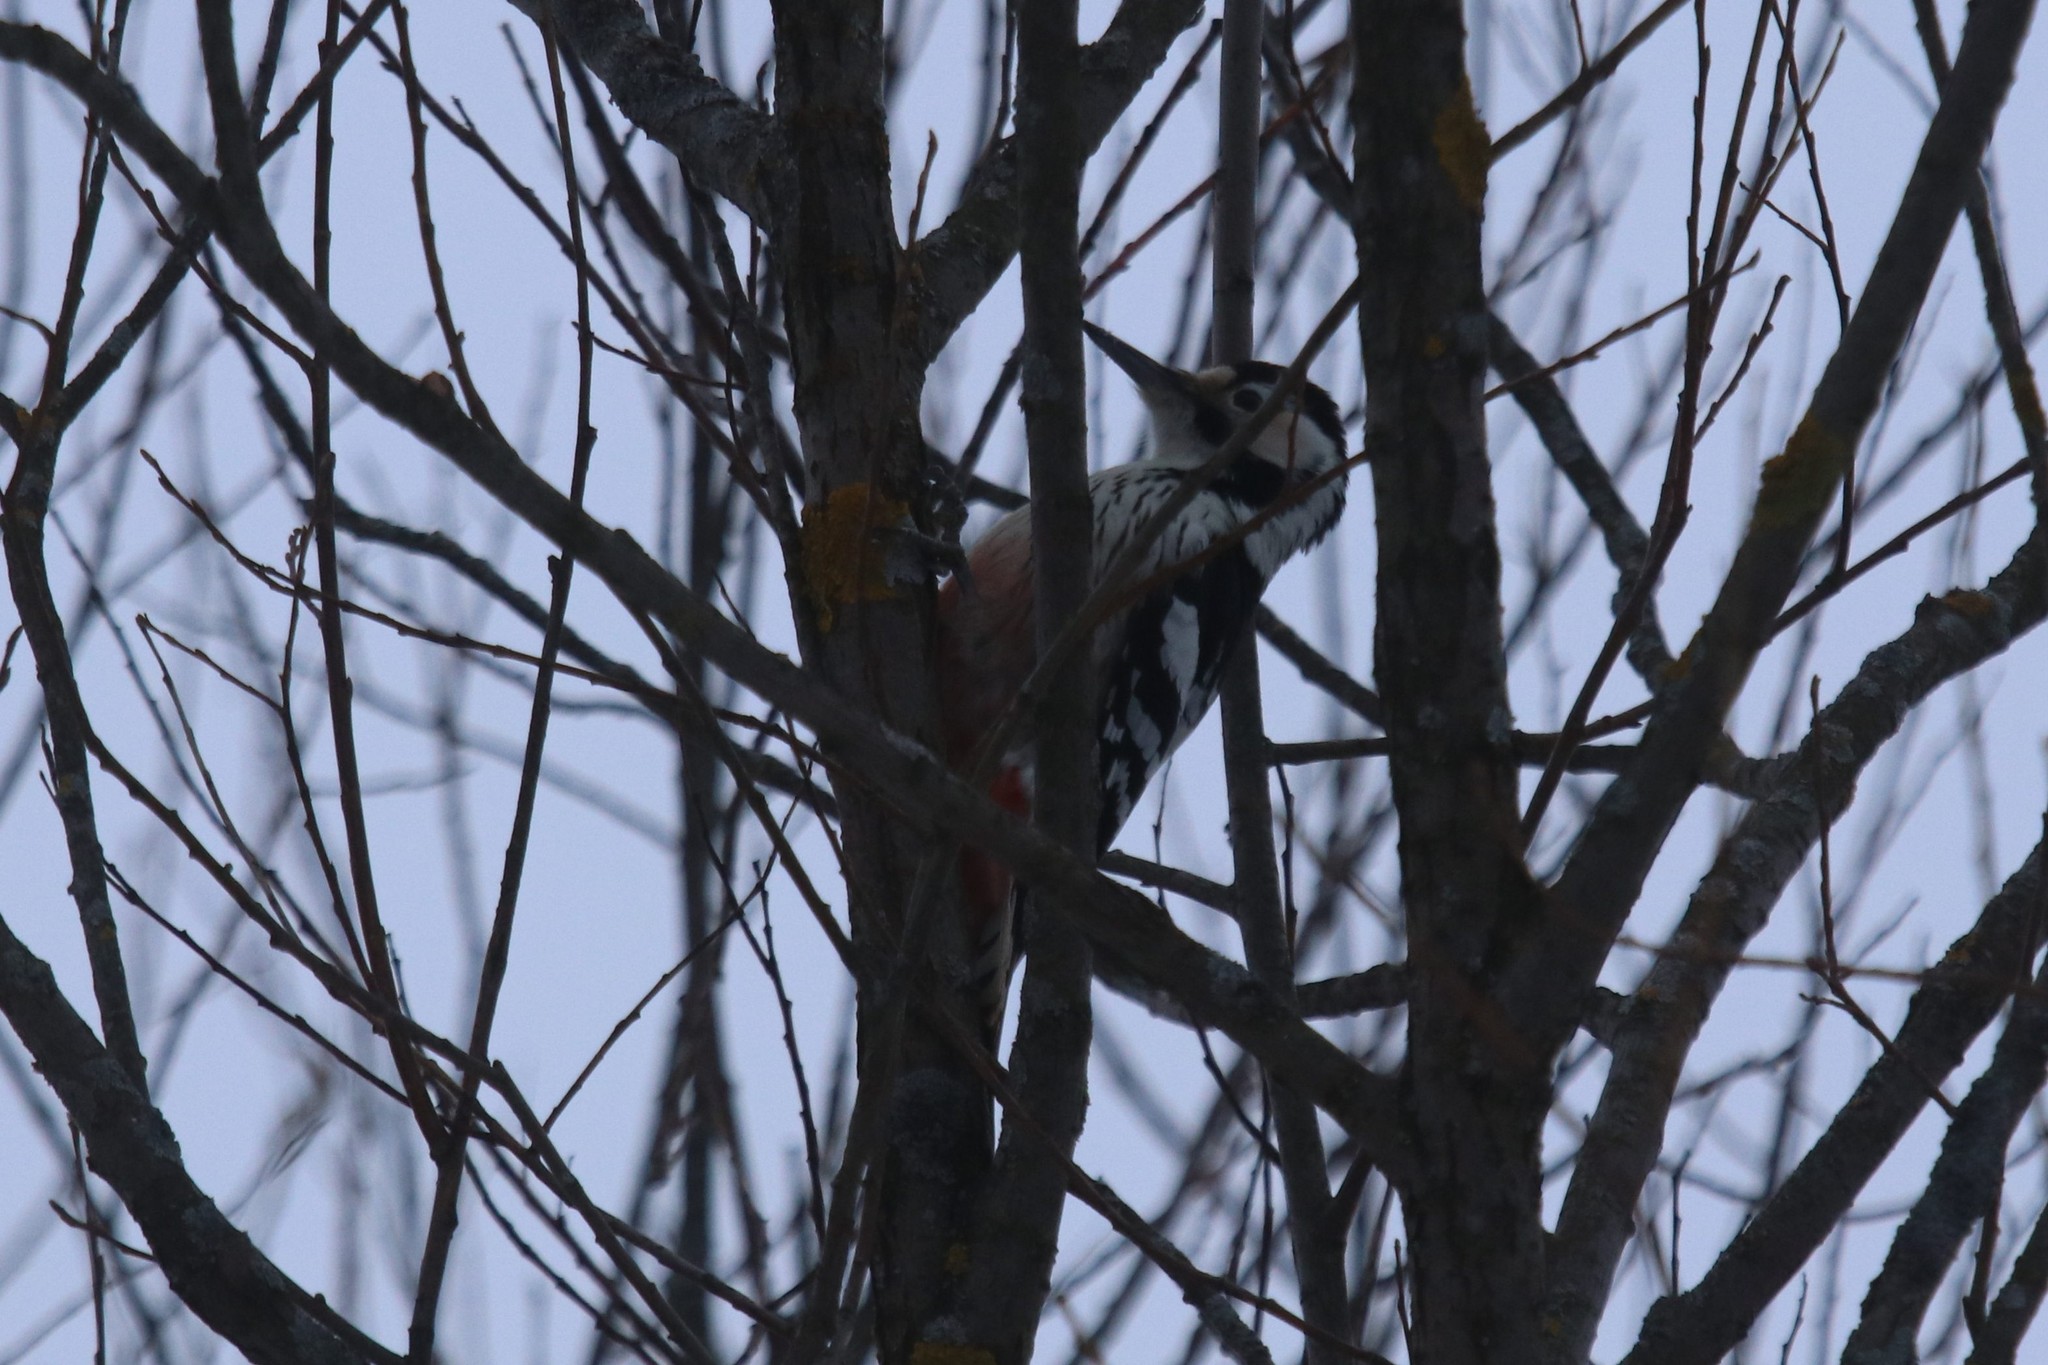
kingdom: Animalia
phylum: Chordata
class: Aves
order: Piciformes
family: Picidae
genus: Dendrocopos
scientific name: Dendrocopos leucotos
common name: White-backed woodpecker
